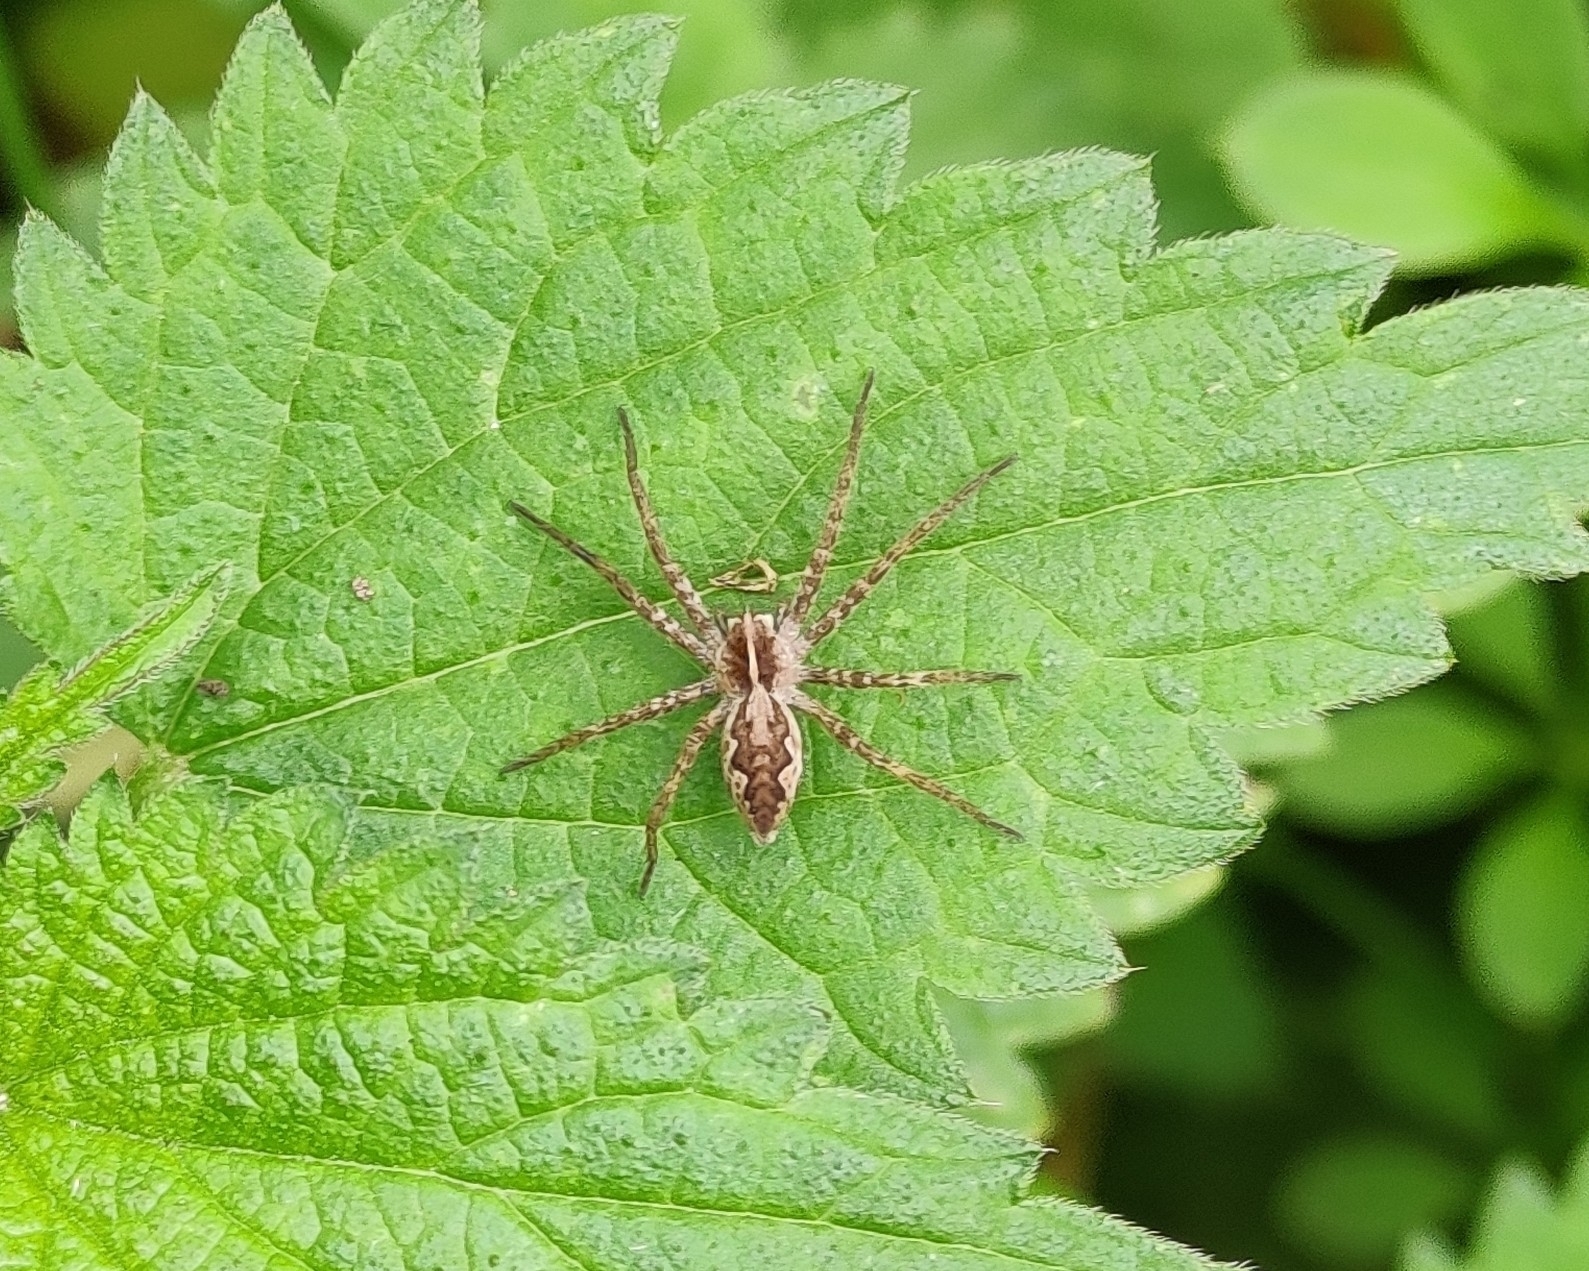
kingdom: Animalia
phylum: Arthropoda
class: Arachnida
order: Araneae
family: Pisauridae
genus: Pisaura
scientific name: Pisaura mirabilis
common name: Tent spider
